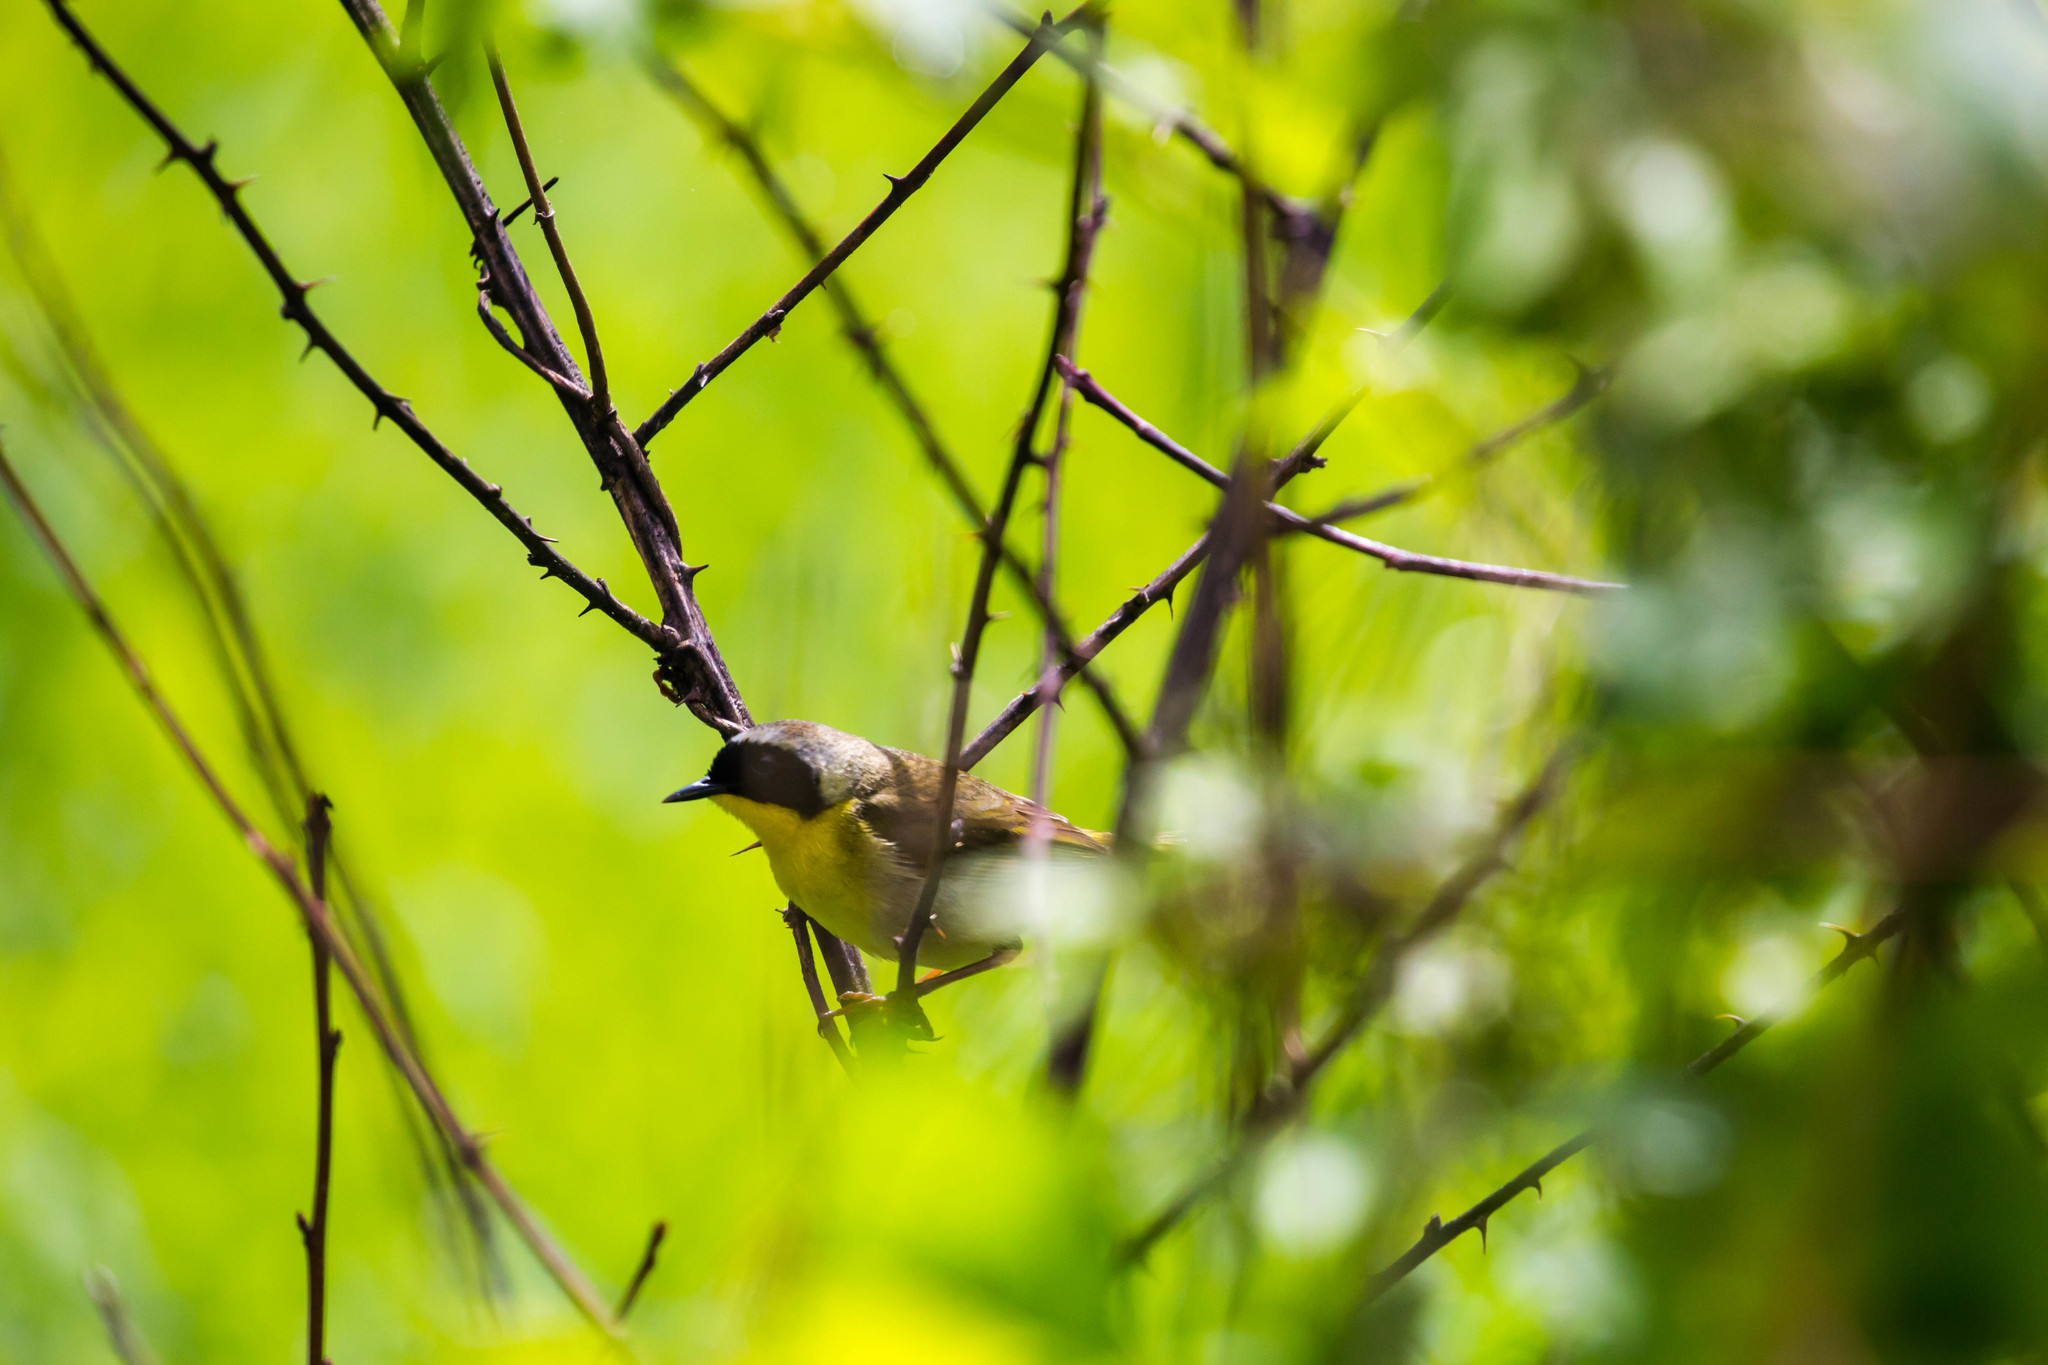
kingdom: Animalia
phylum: Chordata
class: Aves
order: Passeriformes
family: Parulidae
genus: Geothlypis
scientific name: Geothlypis trichas
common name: Common yellowthroat
